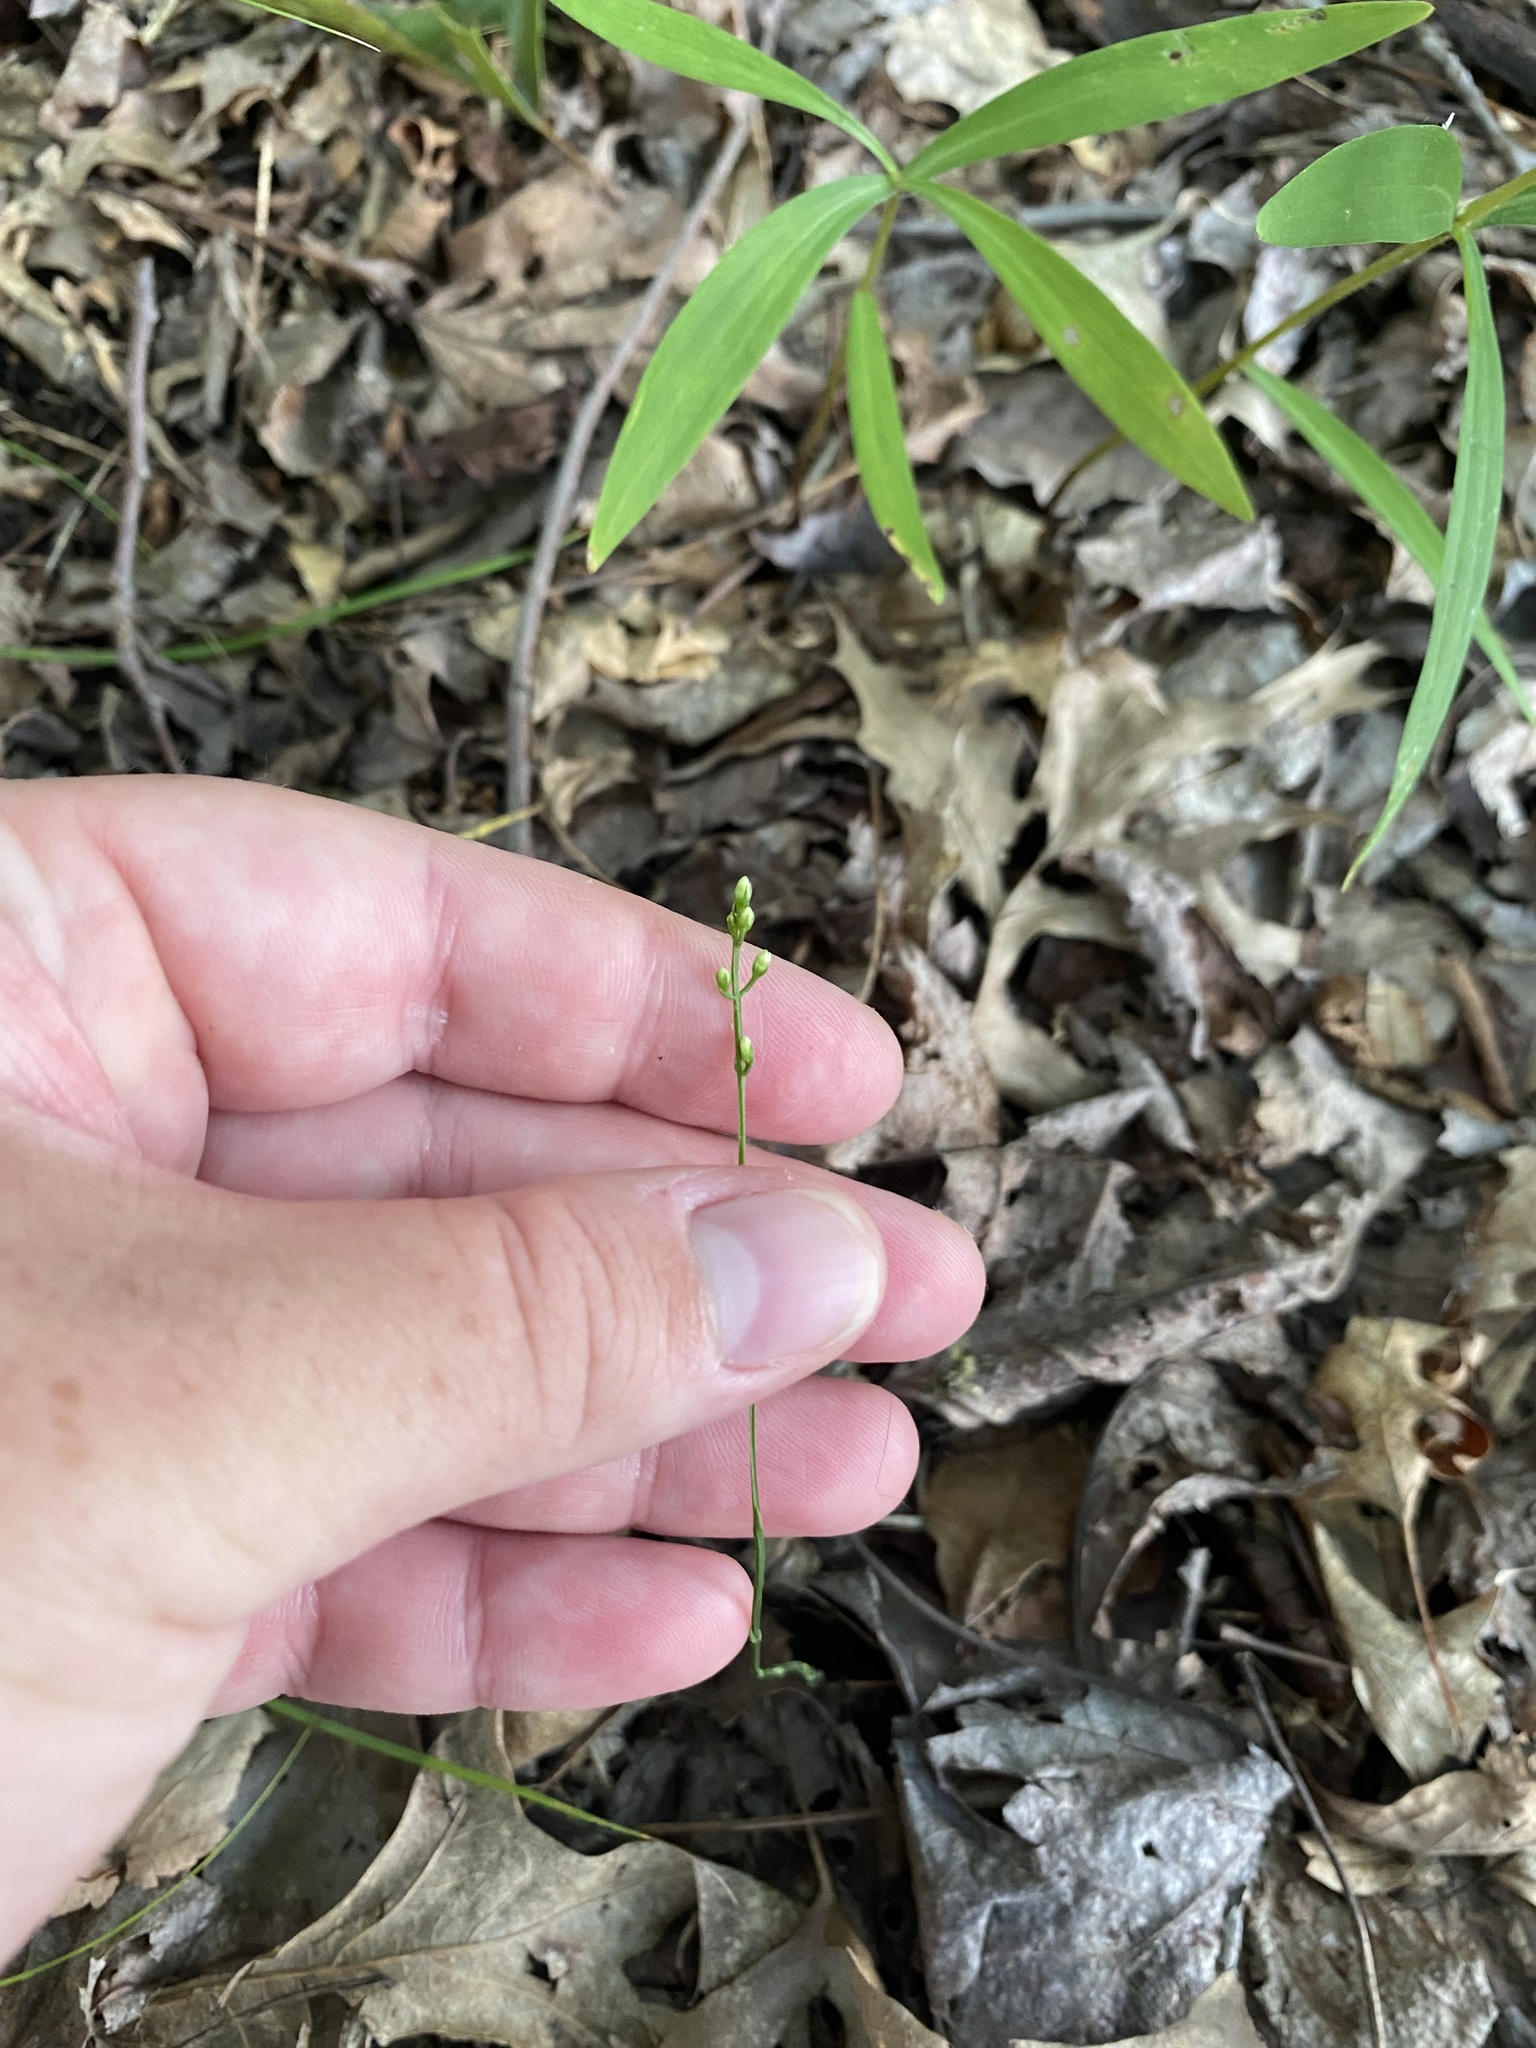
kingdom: Plantae
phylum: Tracheophyta
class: Magnoliopsida
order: Gentianales
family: Gentianaceae
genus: Bartonia
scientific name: Bartonia virginica
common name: Yellow bartonia
